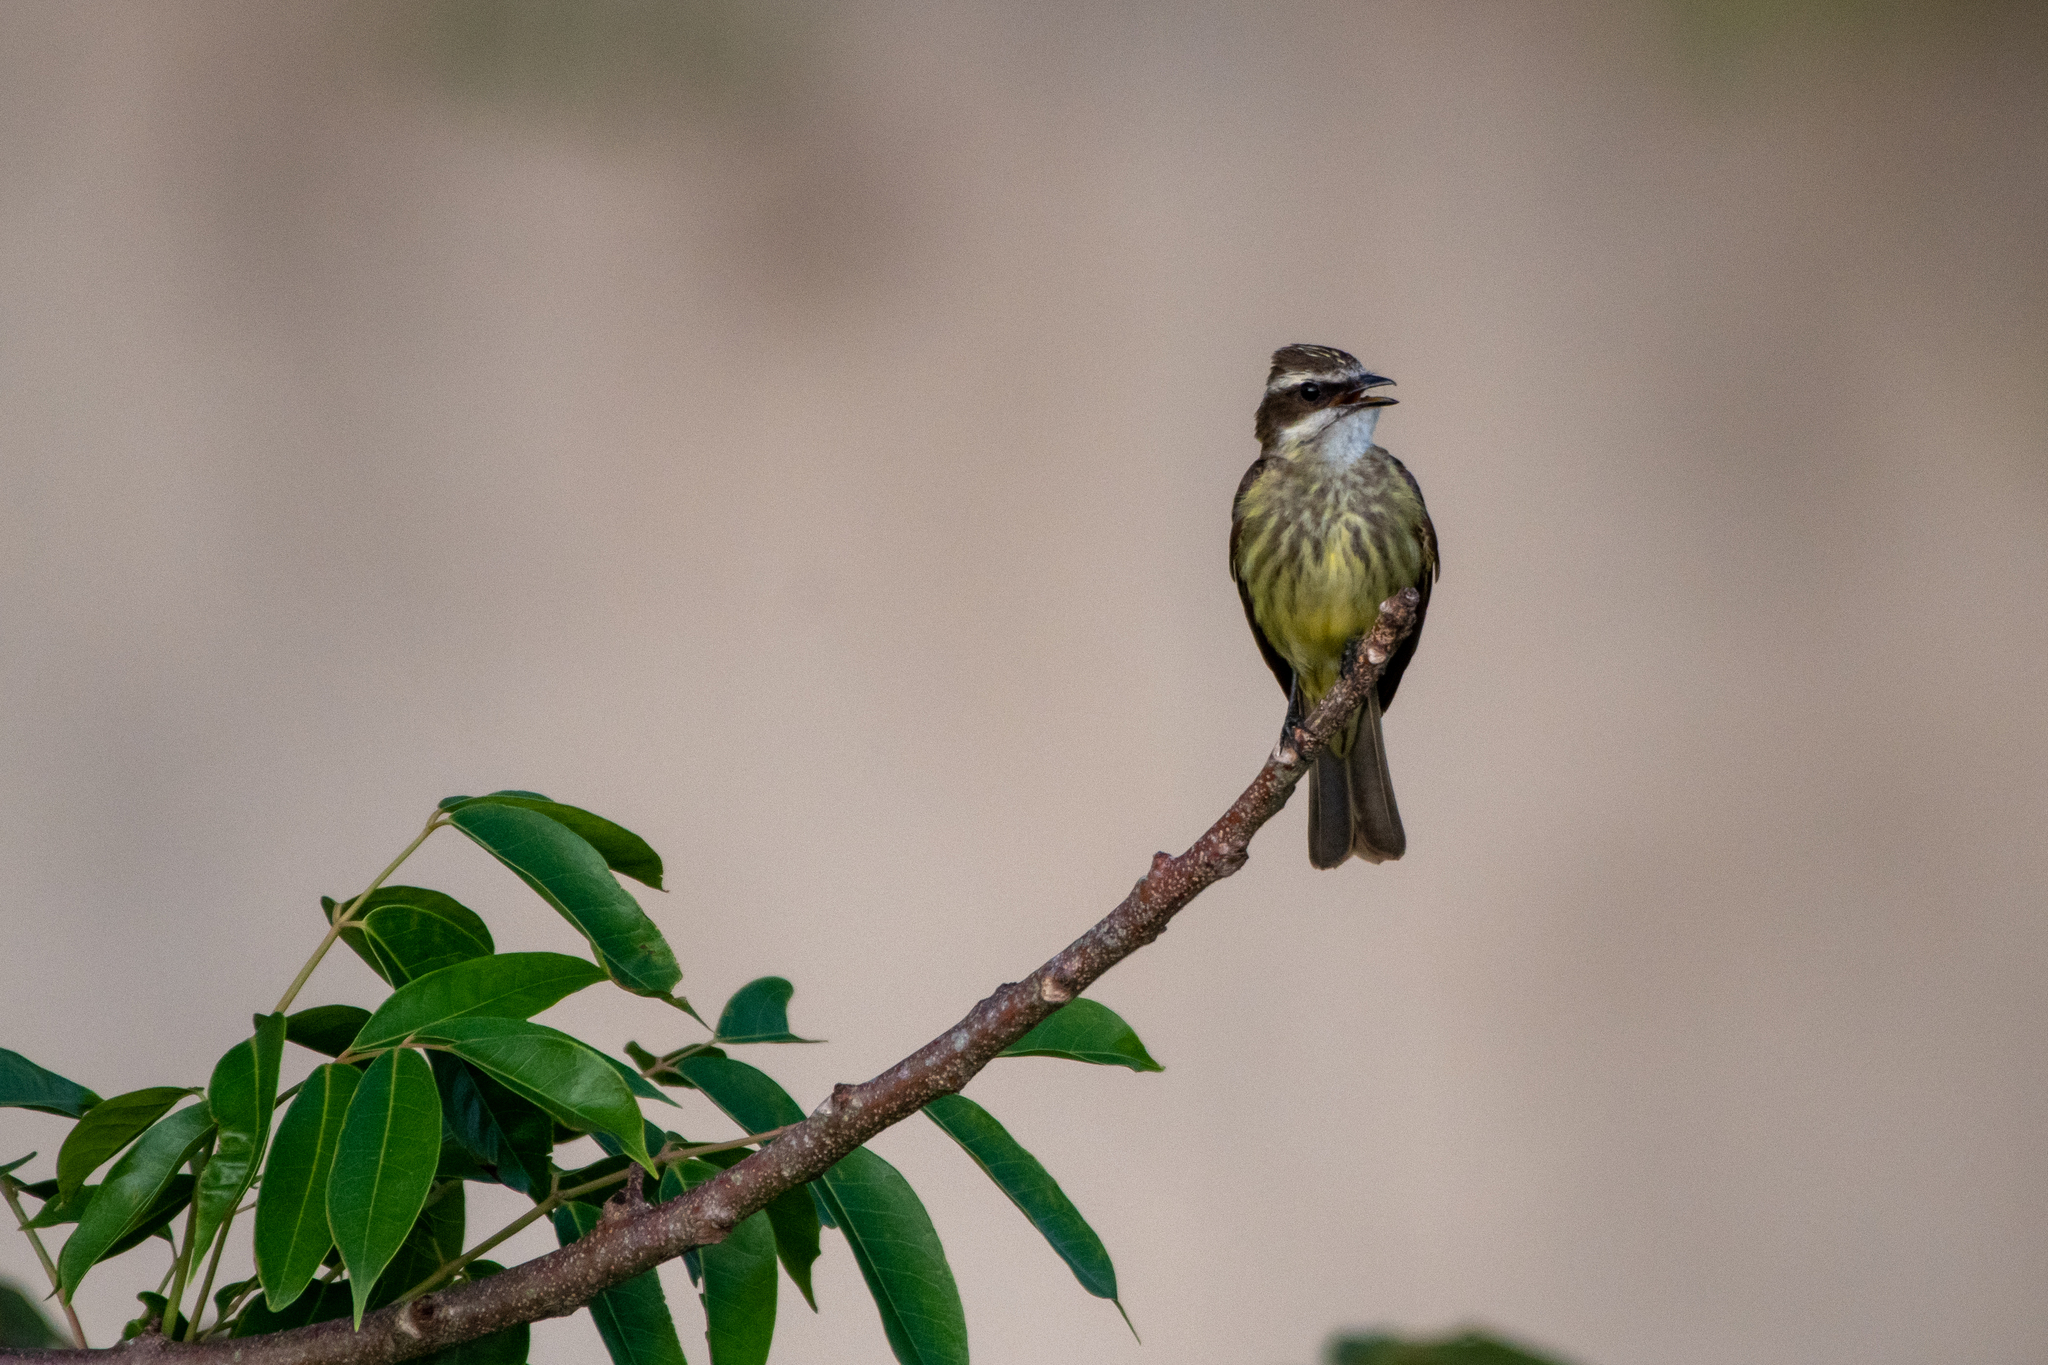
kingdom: Animalia
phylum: Chordata
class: Aves
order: Passeriformes
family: Tyrannidae
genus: Legatus
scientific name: Legatus leucophaius
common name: Piratic flycatcher
